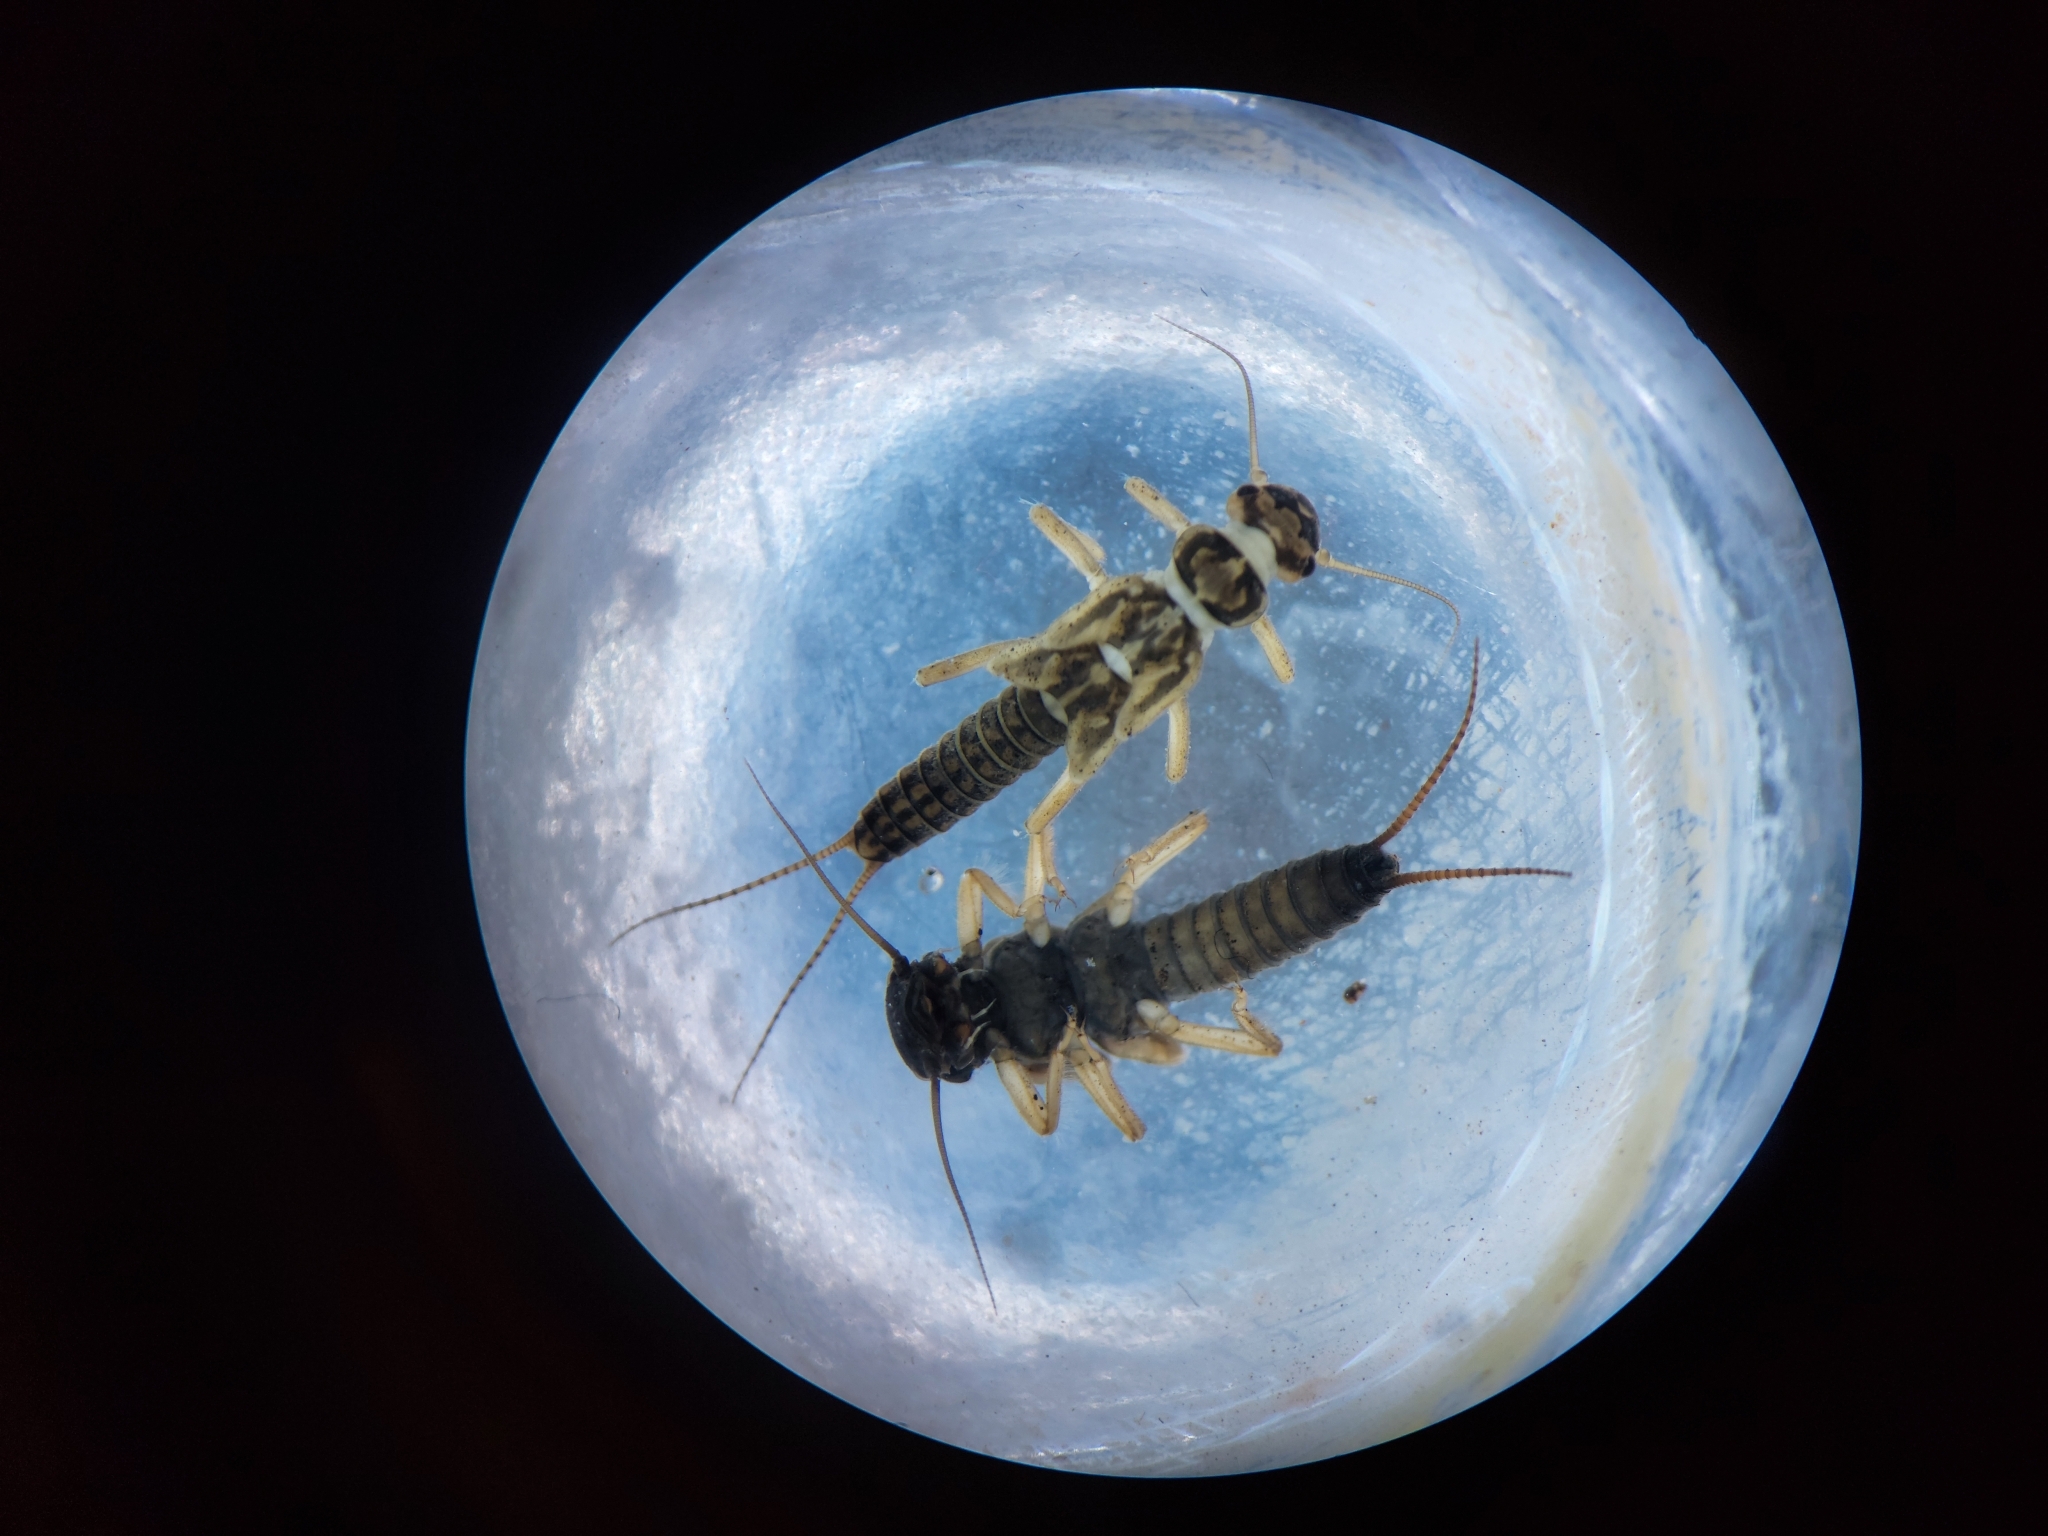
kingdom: Animalia
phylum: Arthropoda
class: Insecta
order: Plecoptera
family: Perlodidae
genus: Isoperla
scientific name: Isoperla difformis
